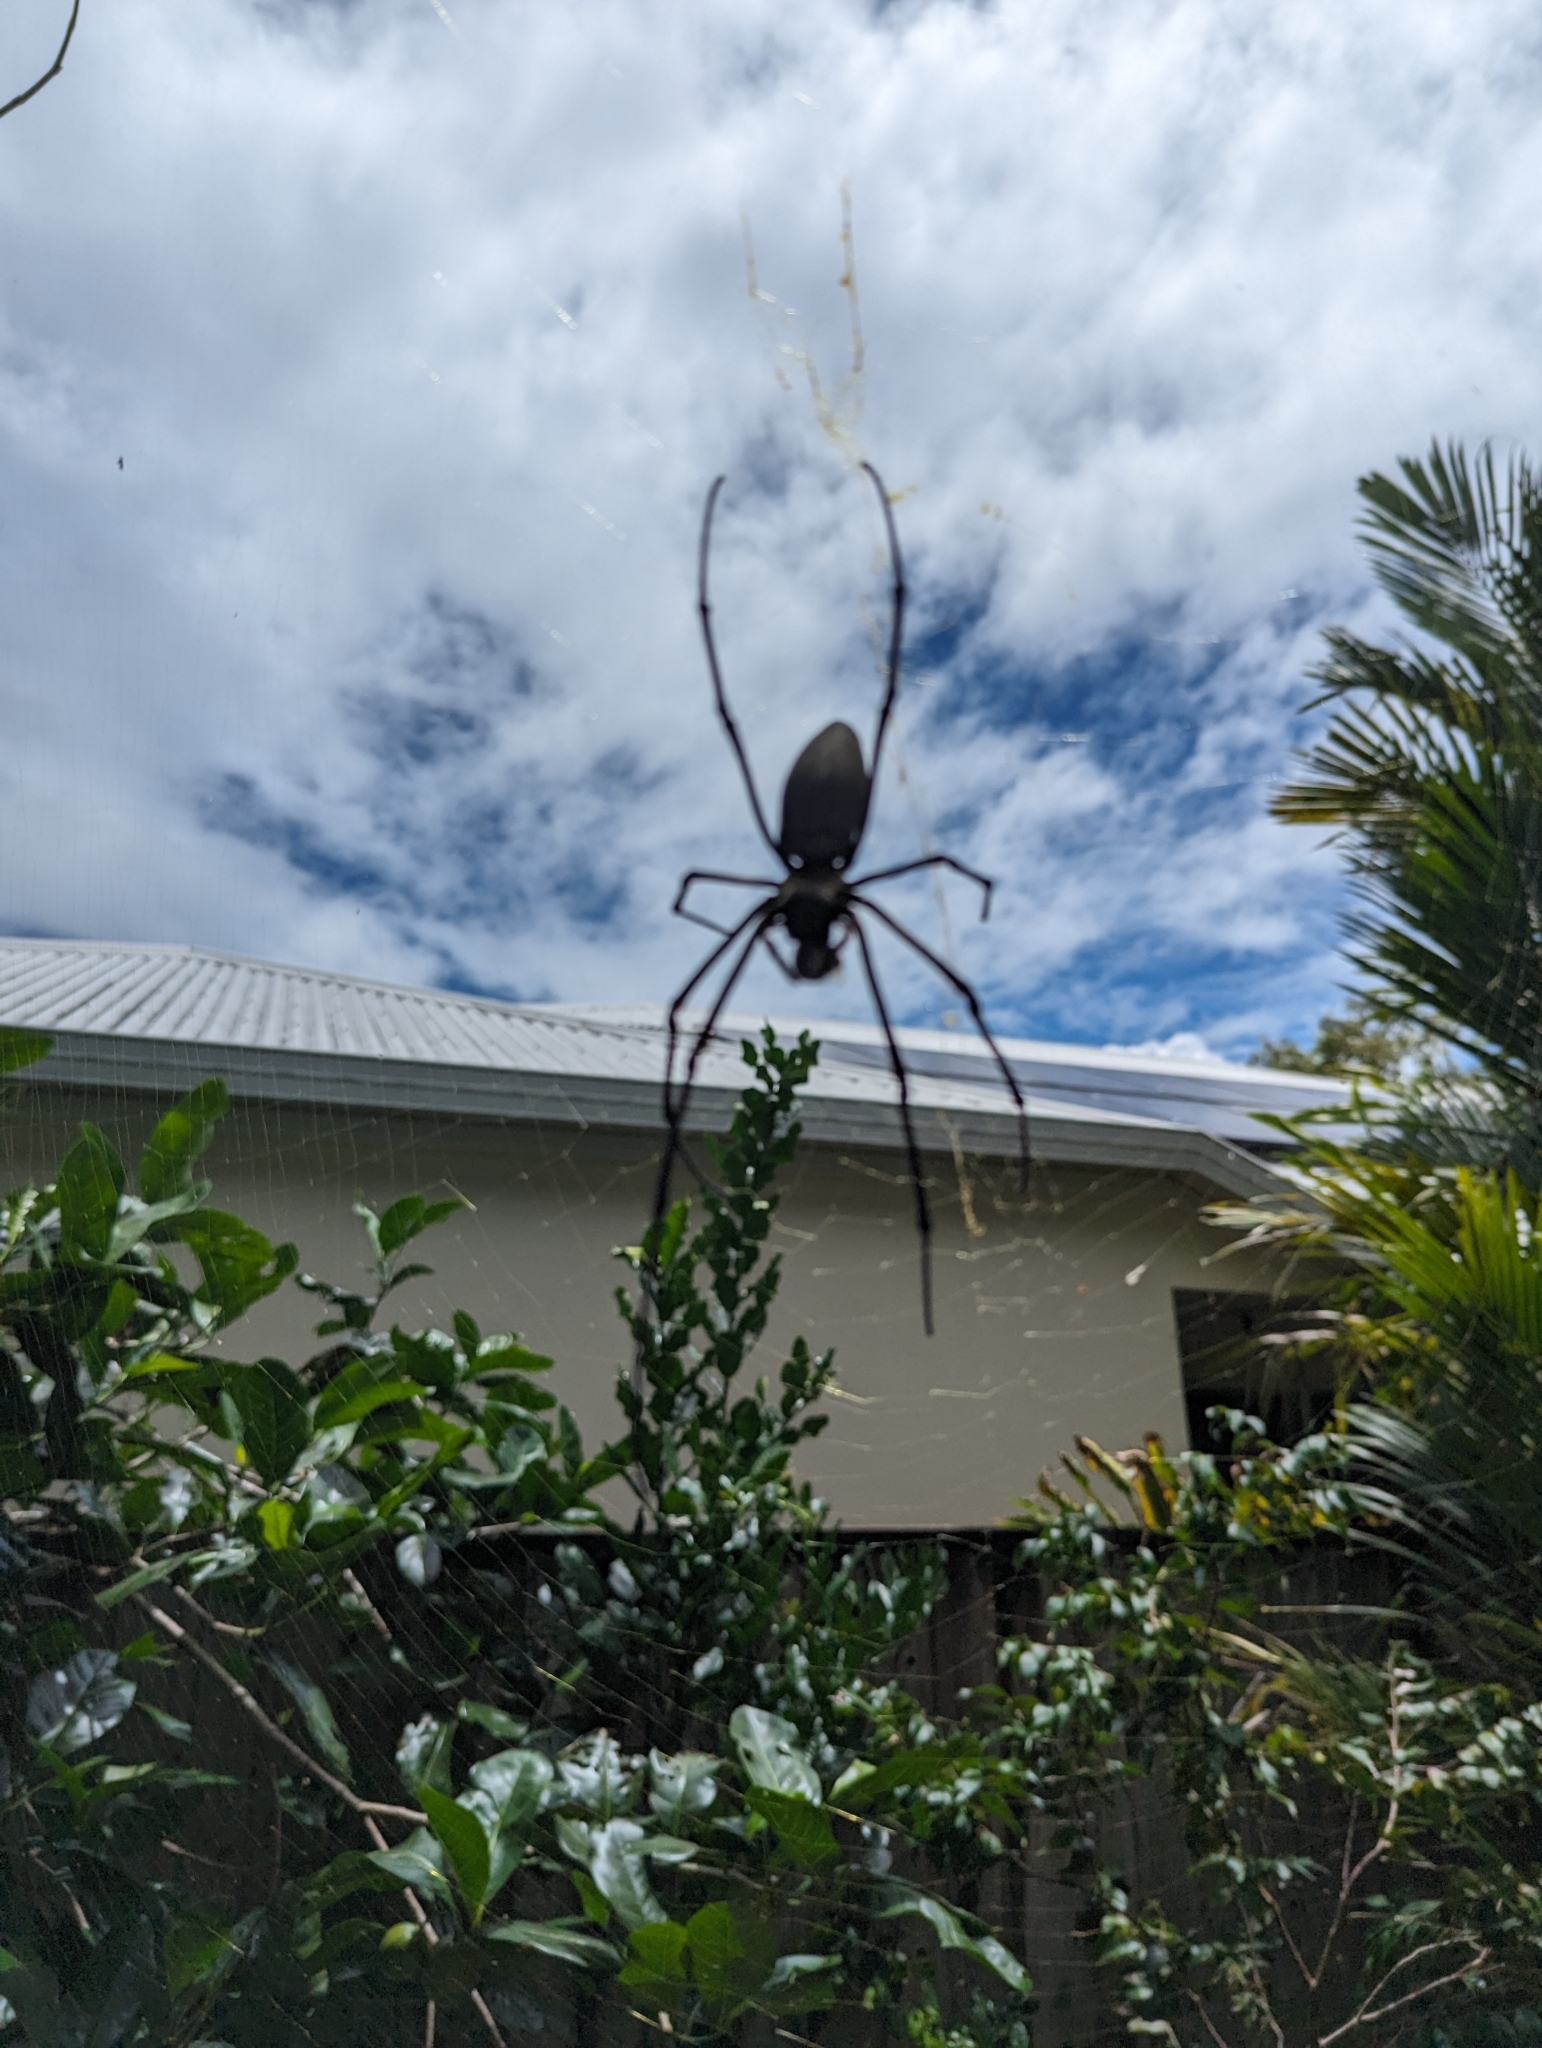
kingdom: Animalia
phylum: Arthropoda
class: Arachnida
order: Araneae
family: Araneidae
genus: Nephila
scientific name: Nephila pilipes
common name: Giant golden orb weaver
